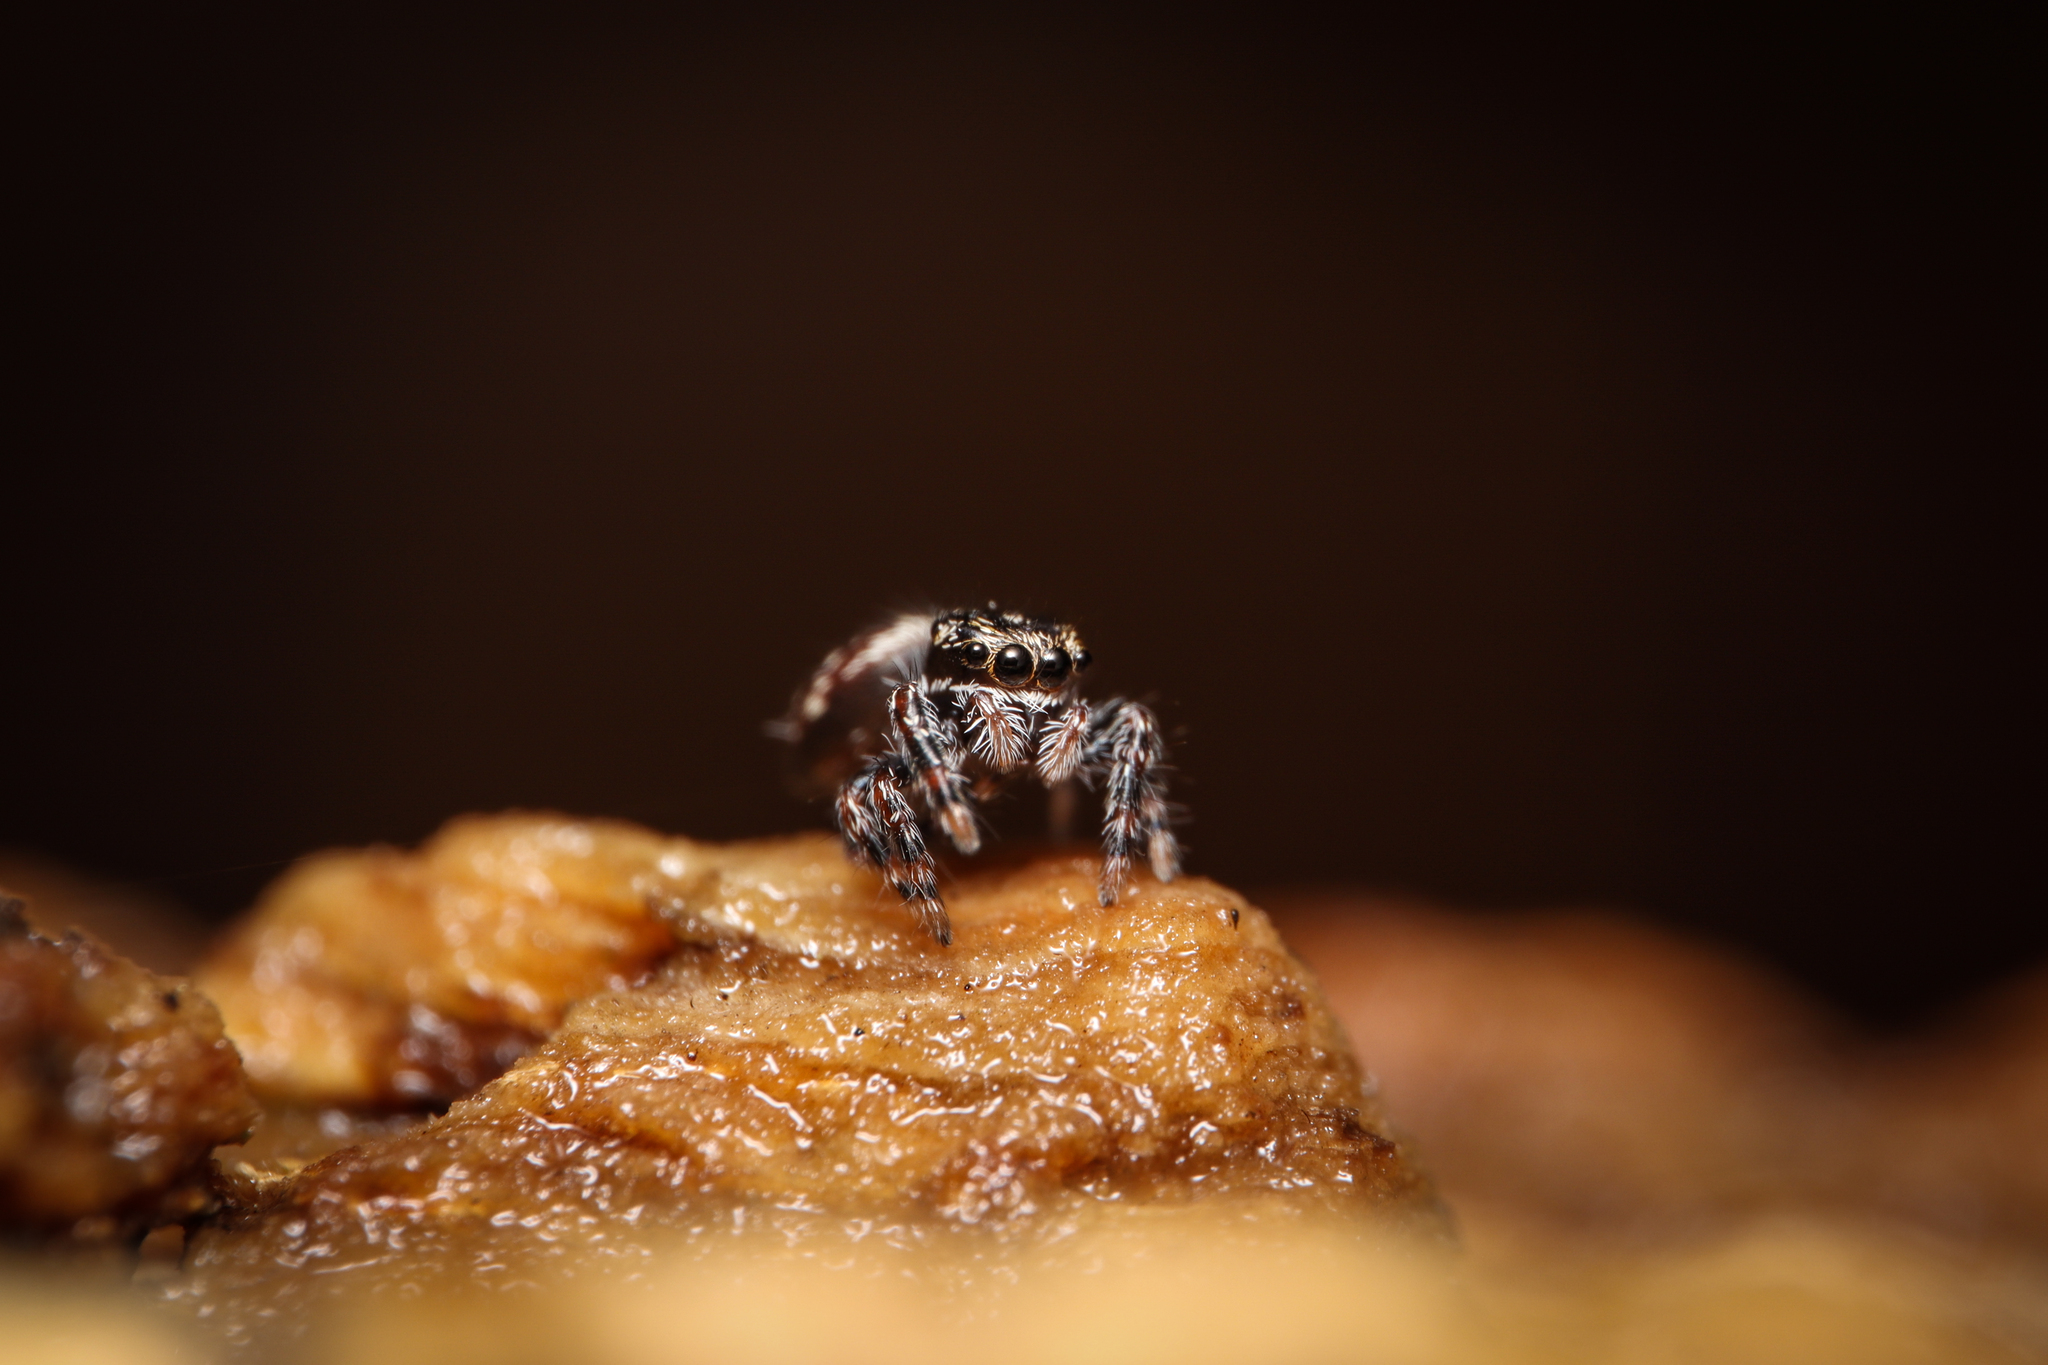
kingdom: Animalia
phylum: Arthropoda
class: Arachnida
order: Araneae
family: Salticidae
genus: Phidippus
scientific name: Phidippus putnami
